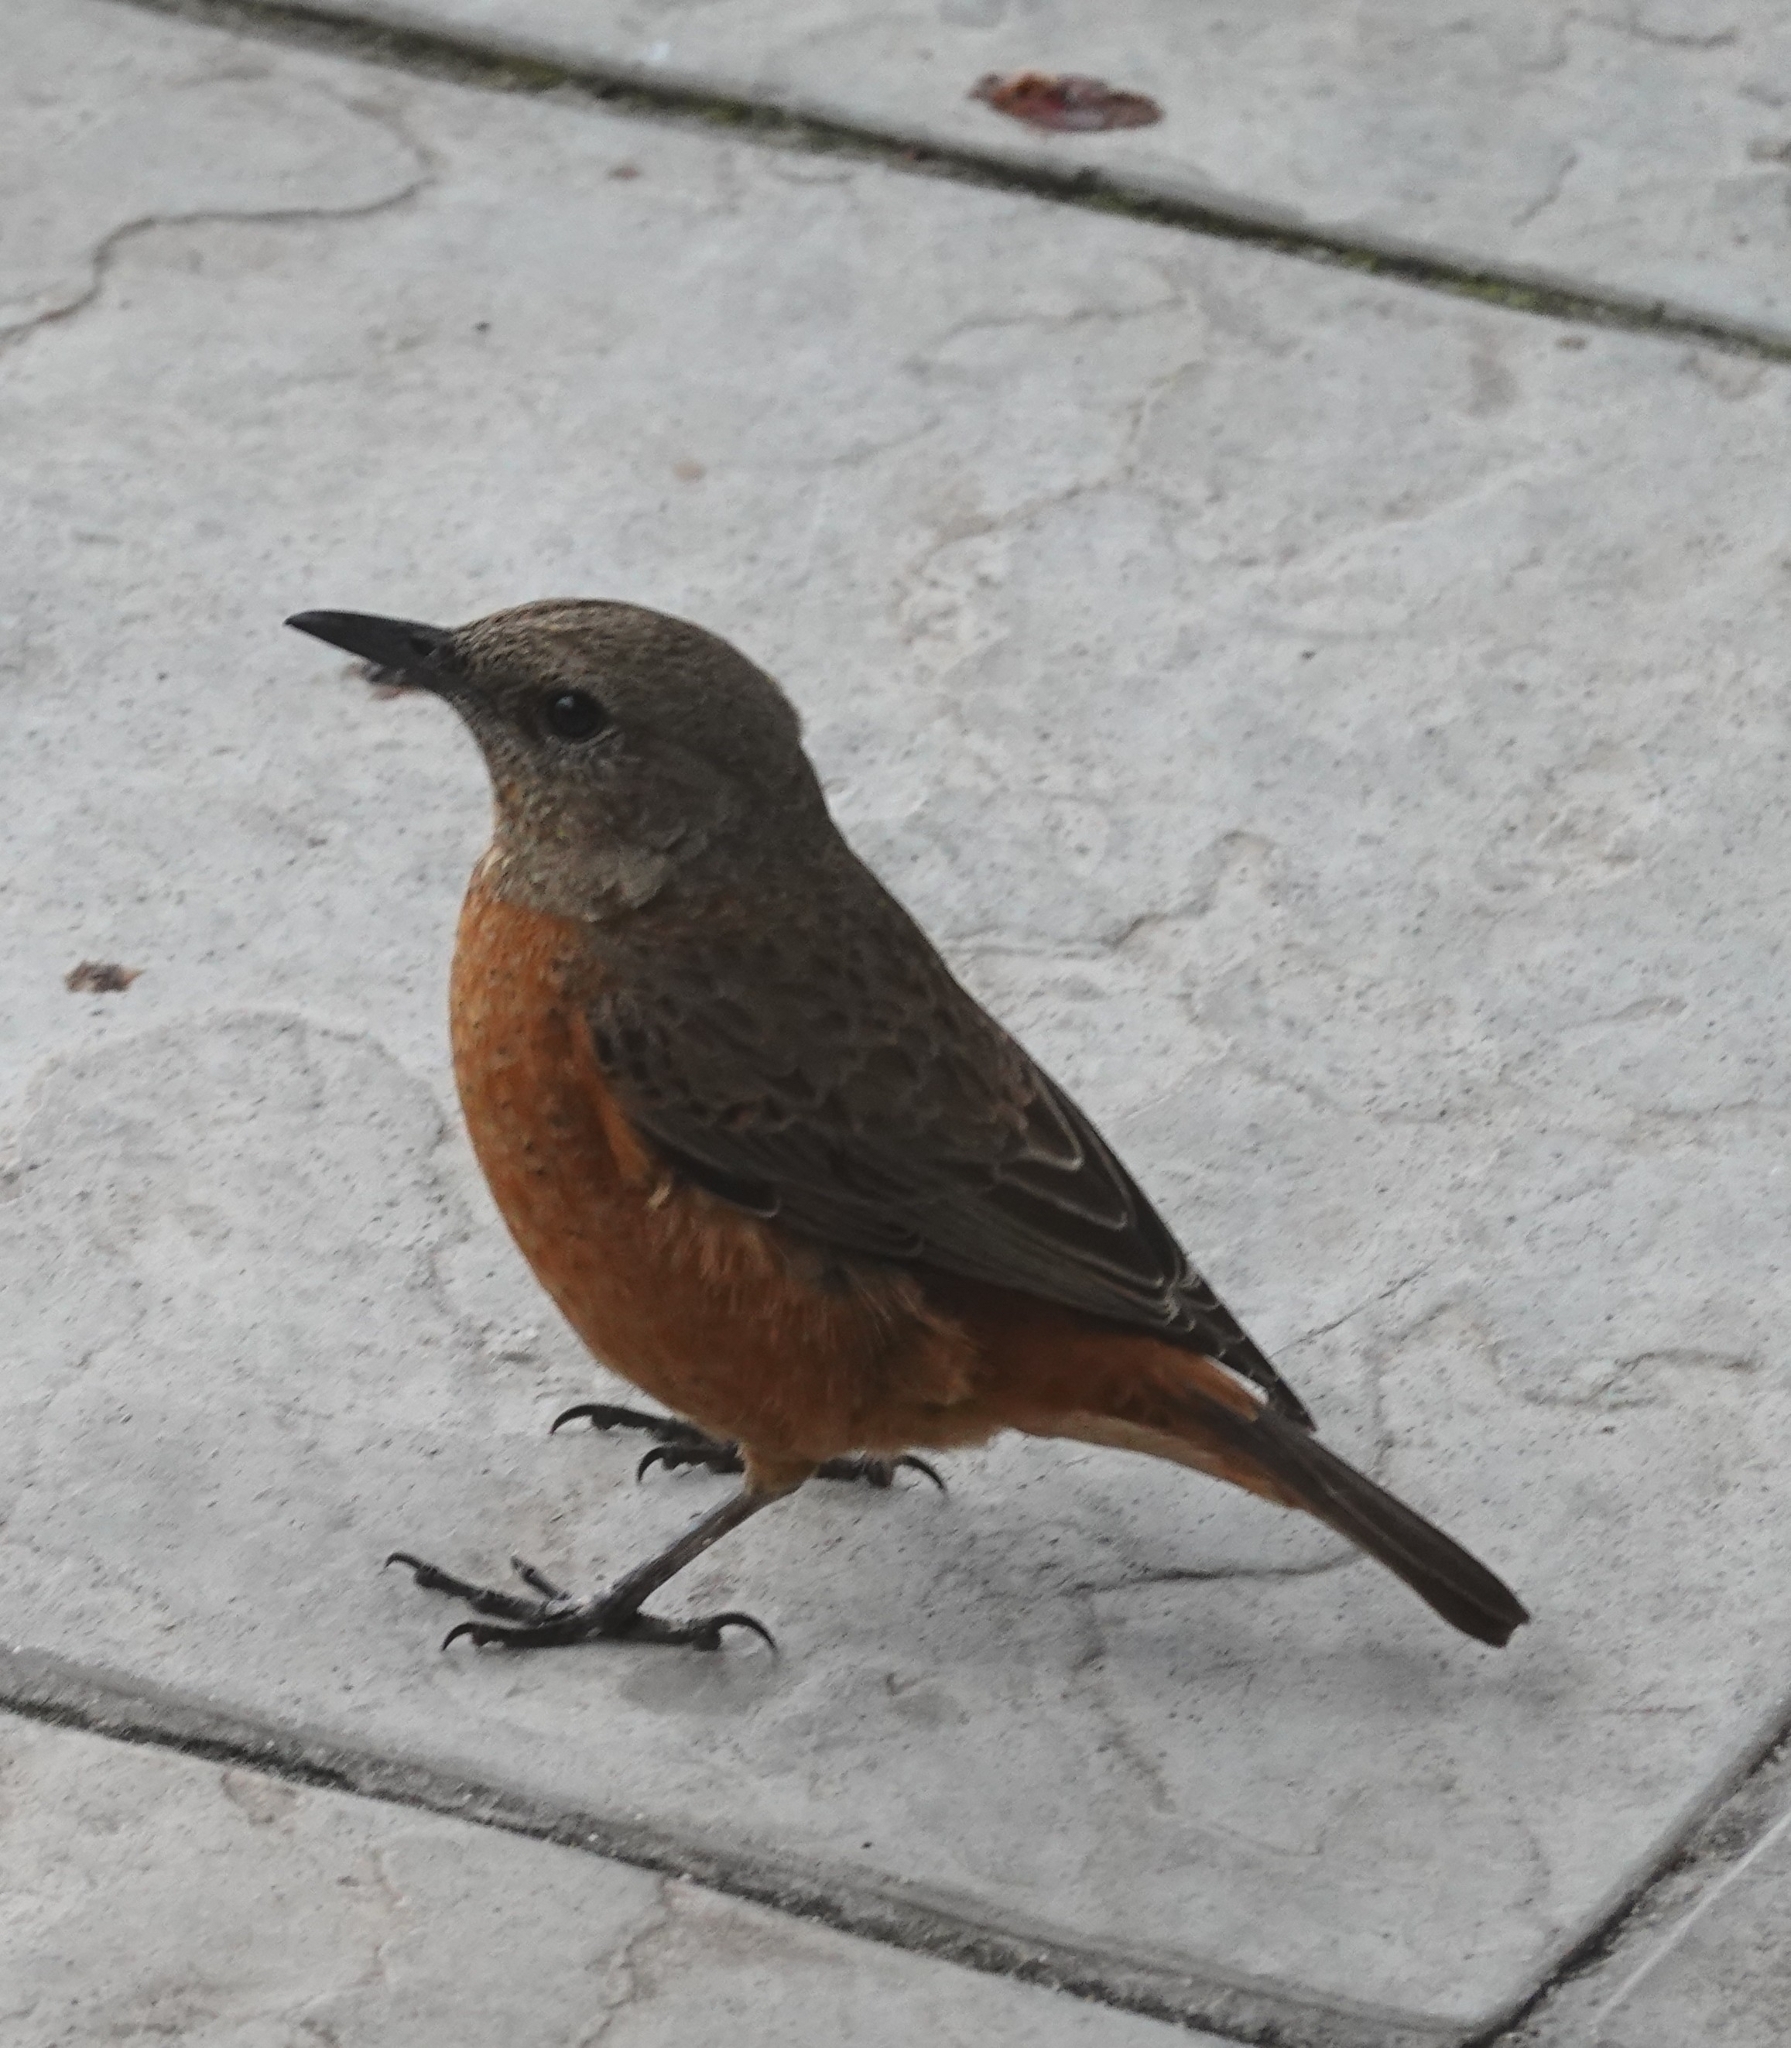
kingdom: Animalia
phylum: Chordata
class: Aves
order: Passeriformes
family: Muscicapidae
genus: Monticola
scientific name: Monticola rupestris
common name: Cape rock thrush
